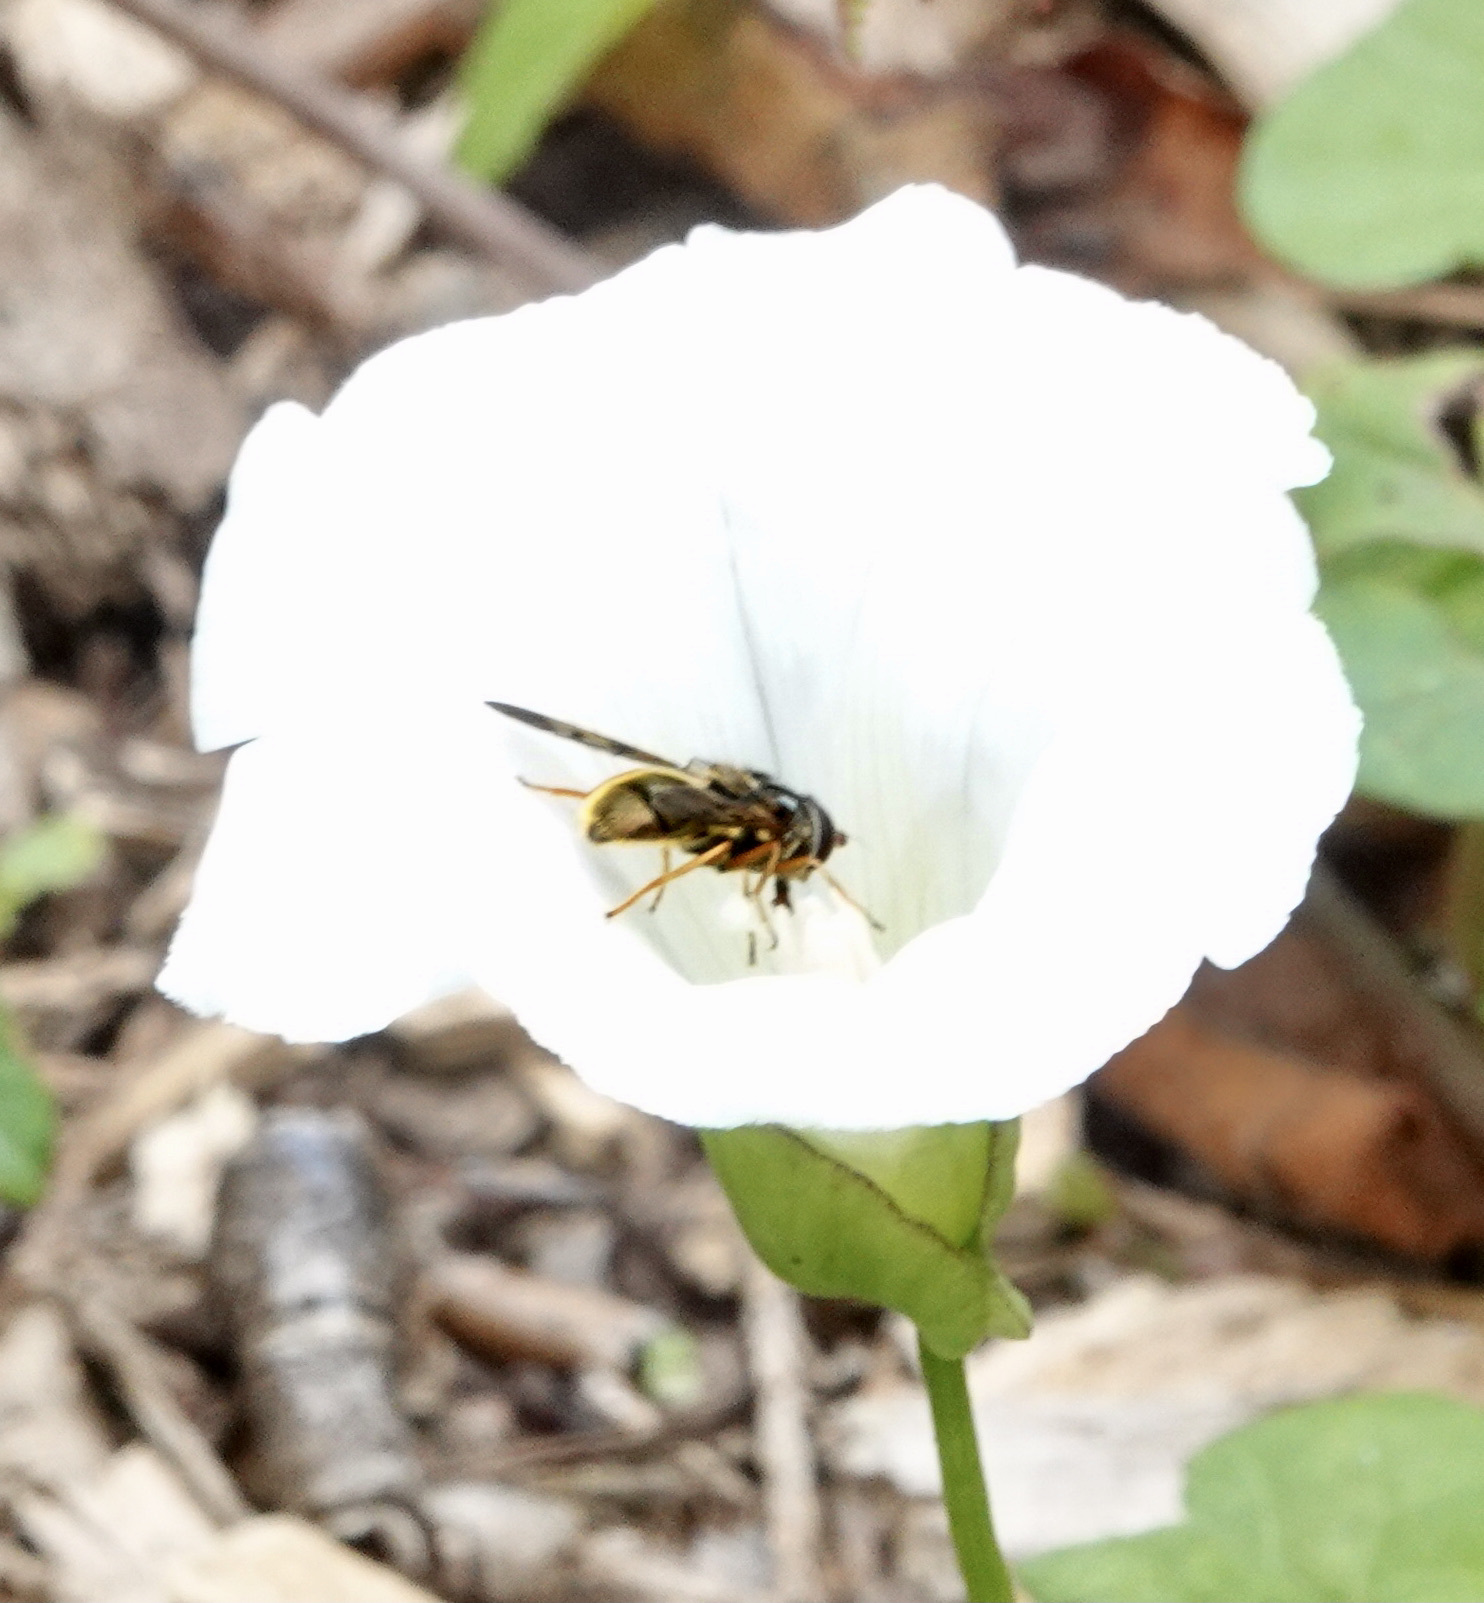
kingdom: Animalia
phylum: Arthropoda
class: Insecta
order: Diptera
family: Syrphidae
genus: Ferdinandea
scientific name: Ferdinandea cuprea
